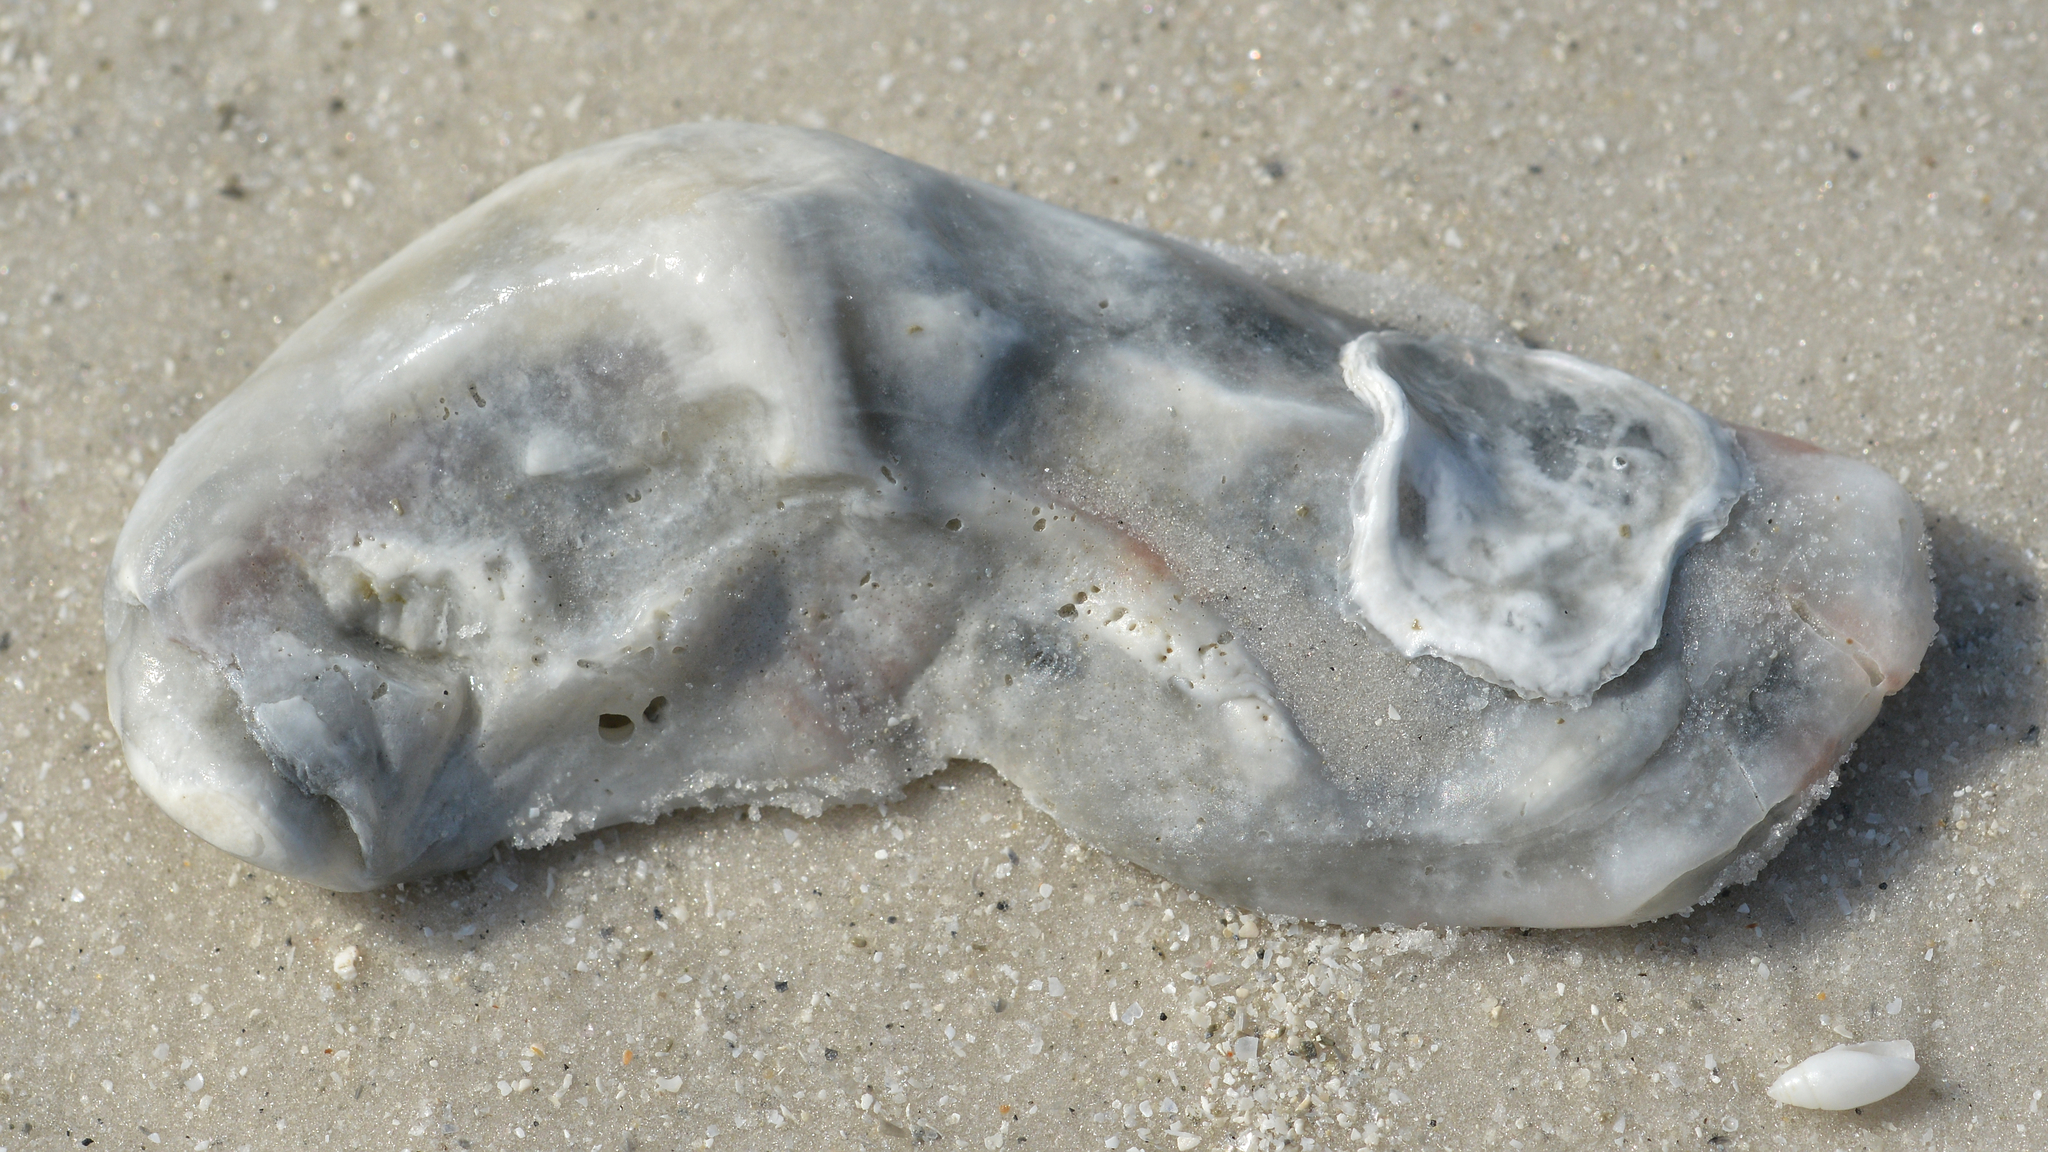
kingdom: Animalia
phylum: Mollusca
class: Bivalvia
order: Ostreida
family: Ostreidae
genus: Crassostrea
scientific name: Crassostrea virginica
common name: American oyster
